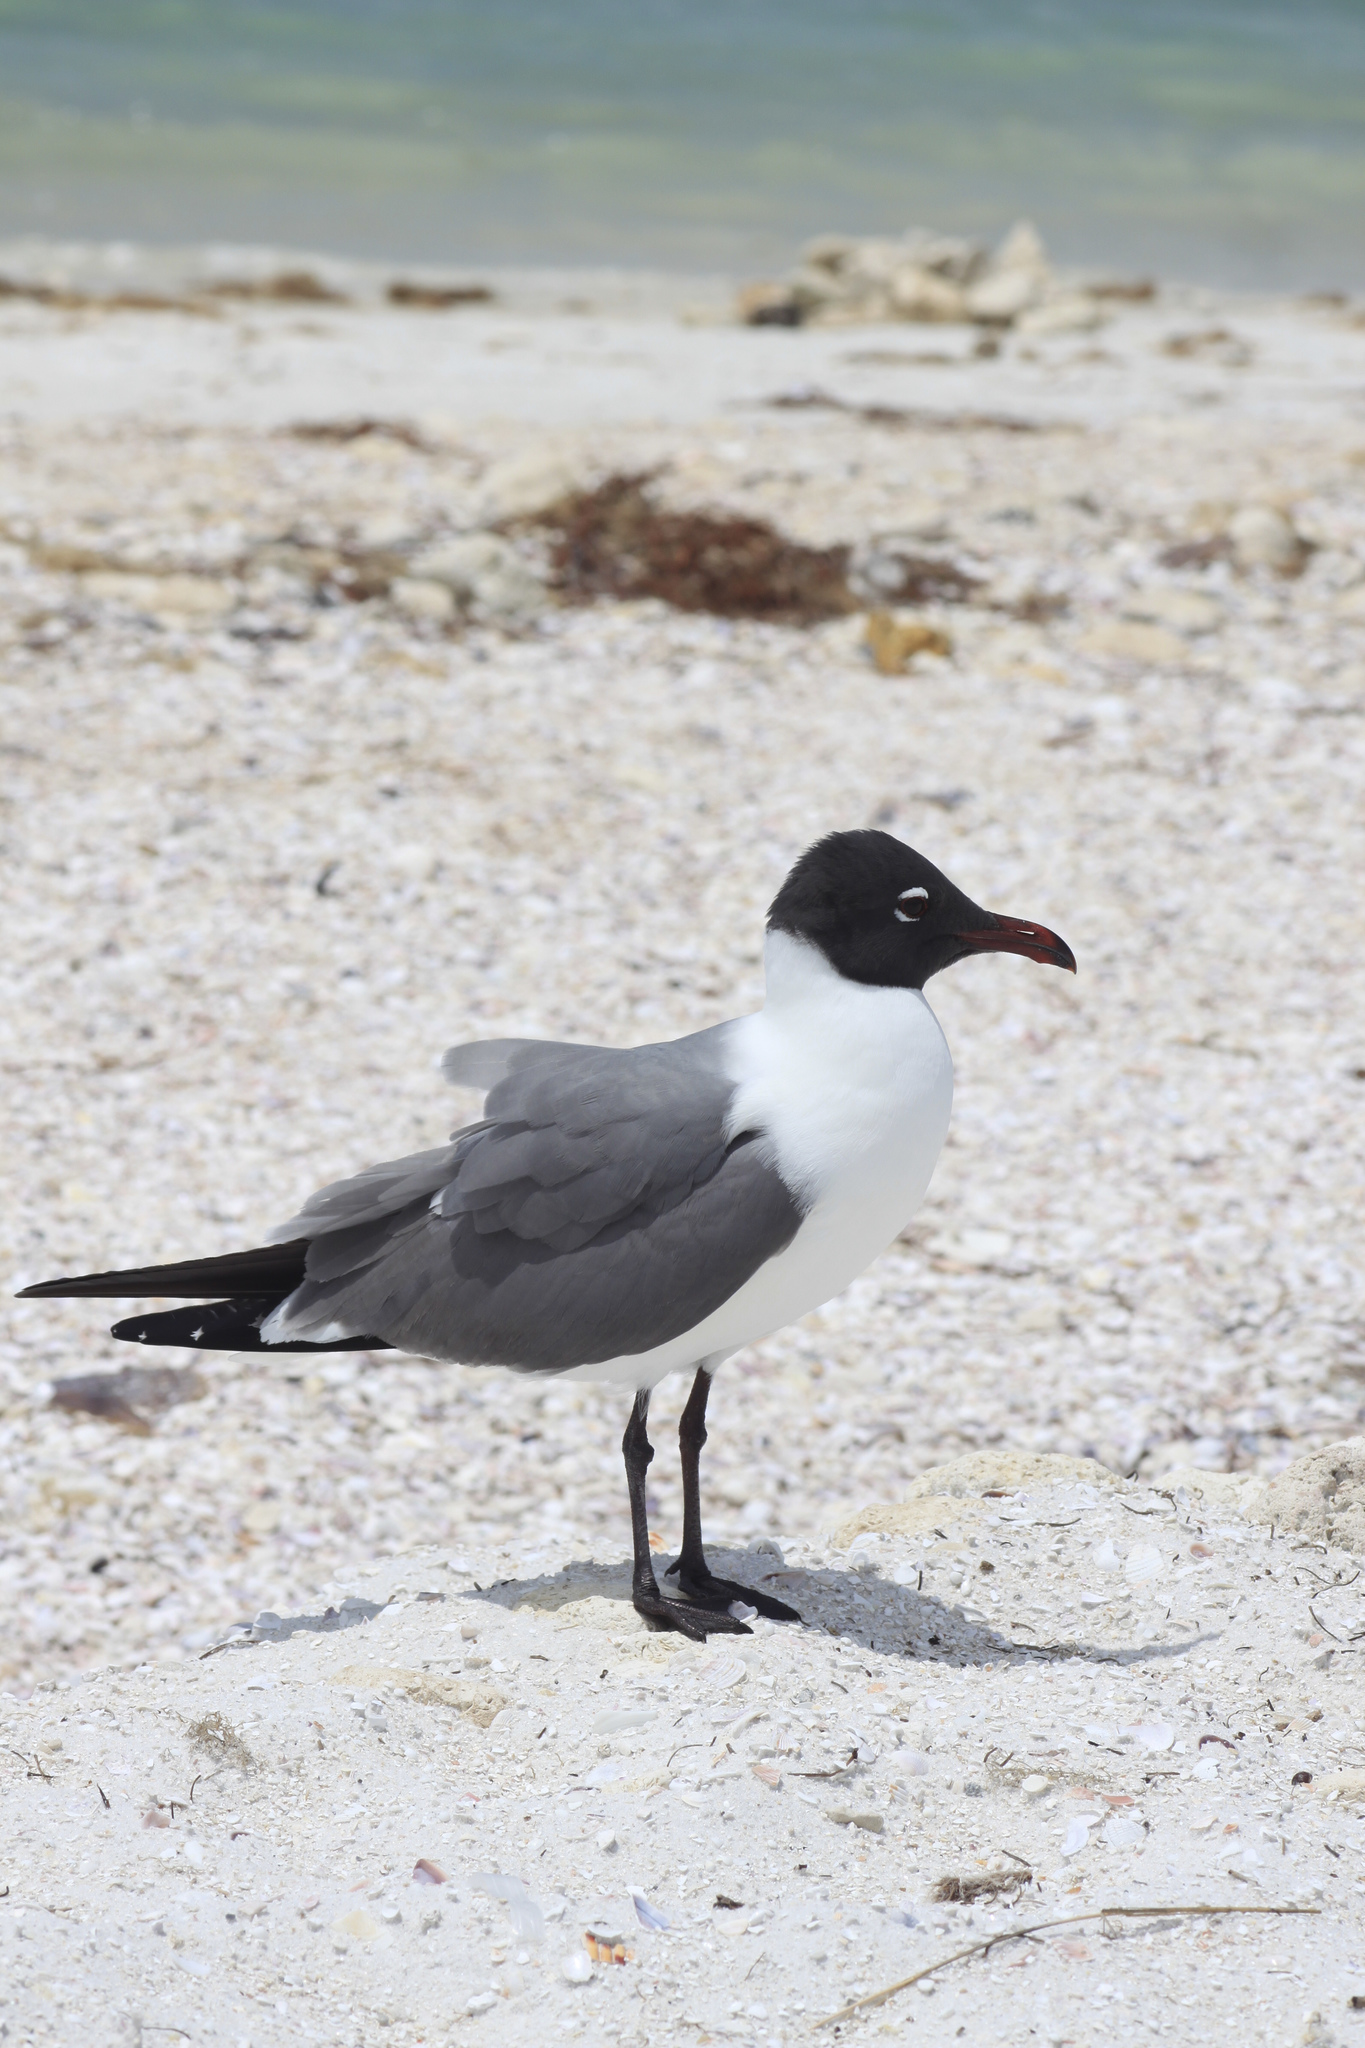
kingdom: Animalia
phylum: Chordata
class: Aves
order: Charadriiformes
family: Laridae
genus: Leucophaeus
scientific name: Leucophaeus atricilla
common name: Laughing gull
